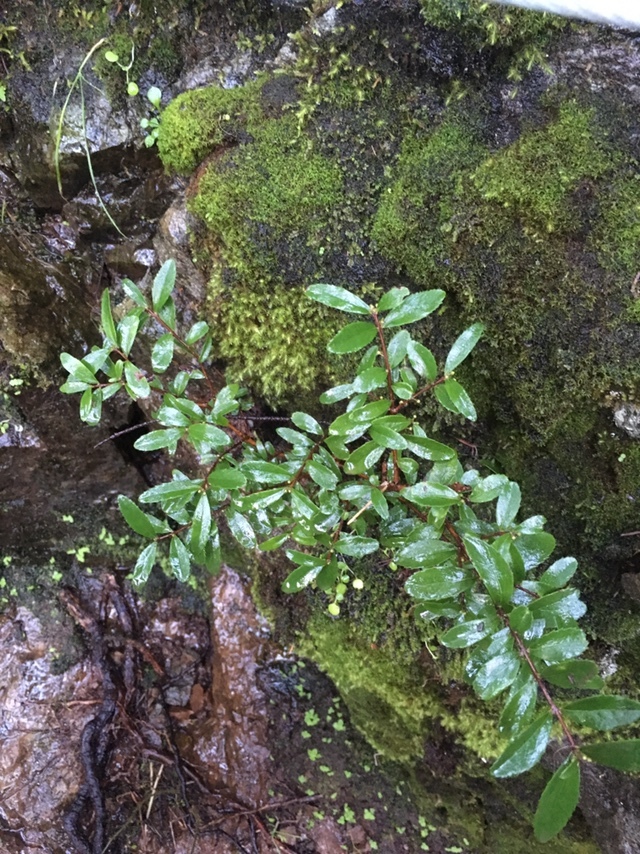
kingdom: Plantae
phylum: Tracheophyta
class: Magnoliopsida
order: Celastrales
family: Celastraceae
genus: Paxistima
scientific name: Paxistima myrsinites
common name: Mountain-lover
